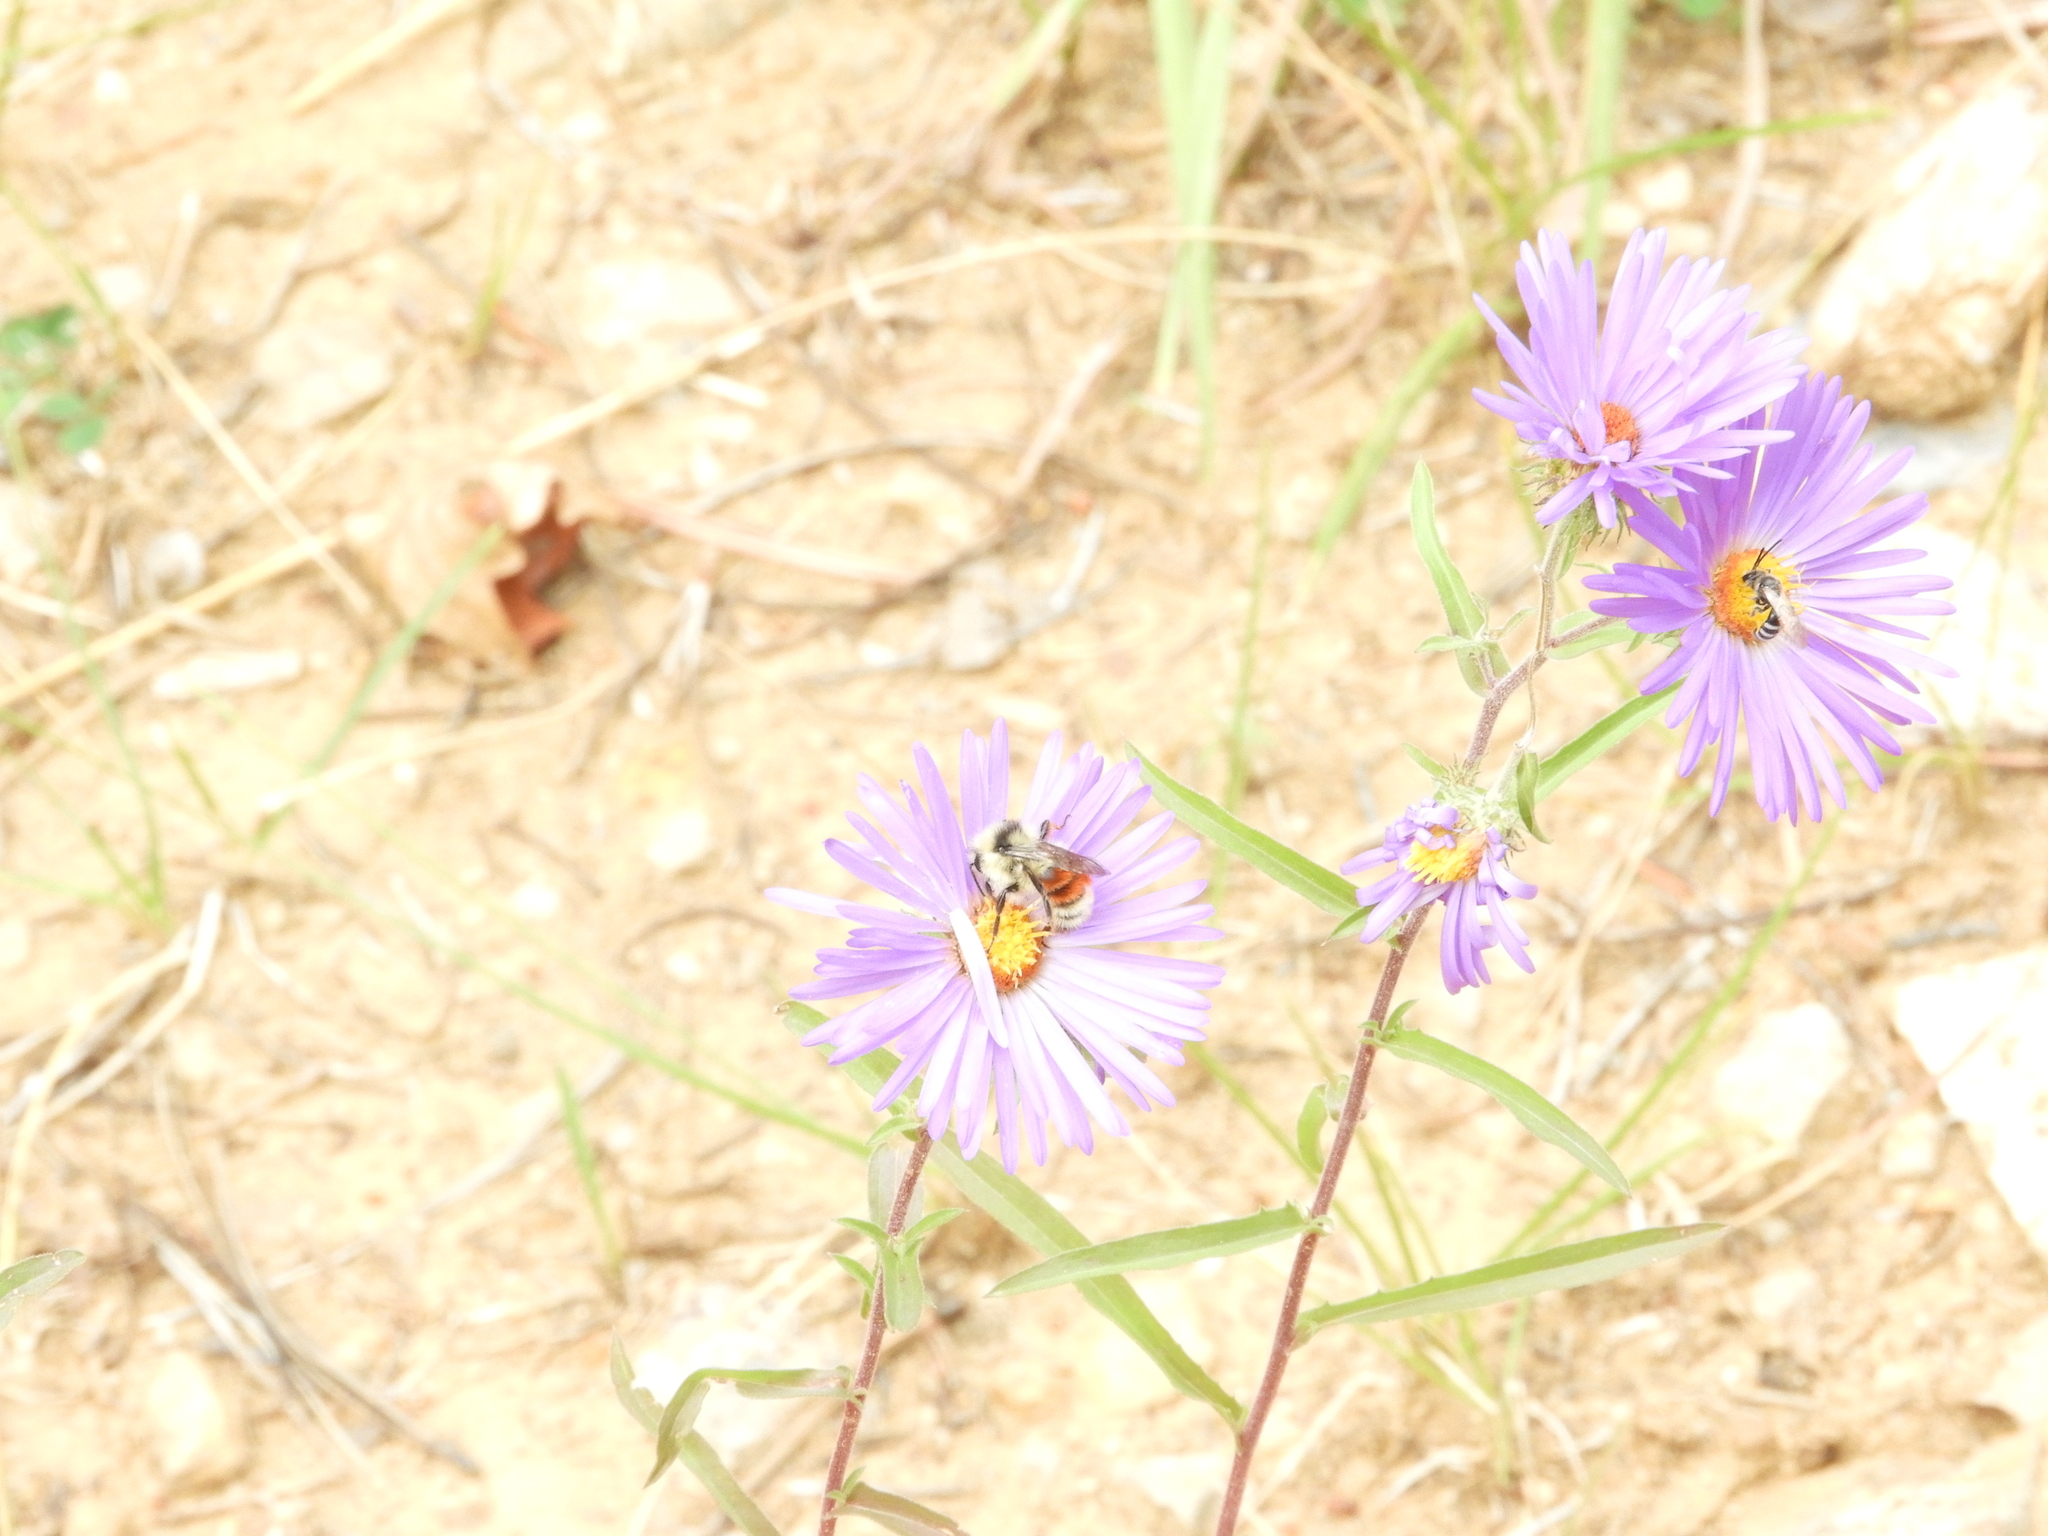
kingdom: Animalia
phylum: Arthropoda
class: Insecta
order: Hymenoptera
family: Apidae
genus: Bombus
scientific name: Bombus huntii
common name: Hunt bumble bee
